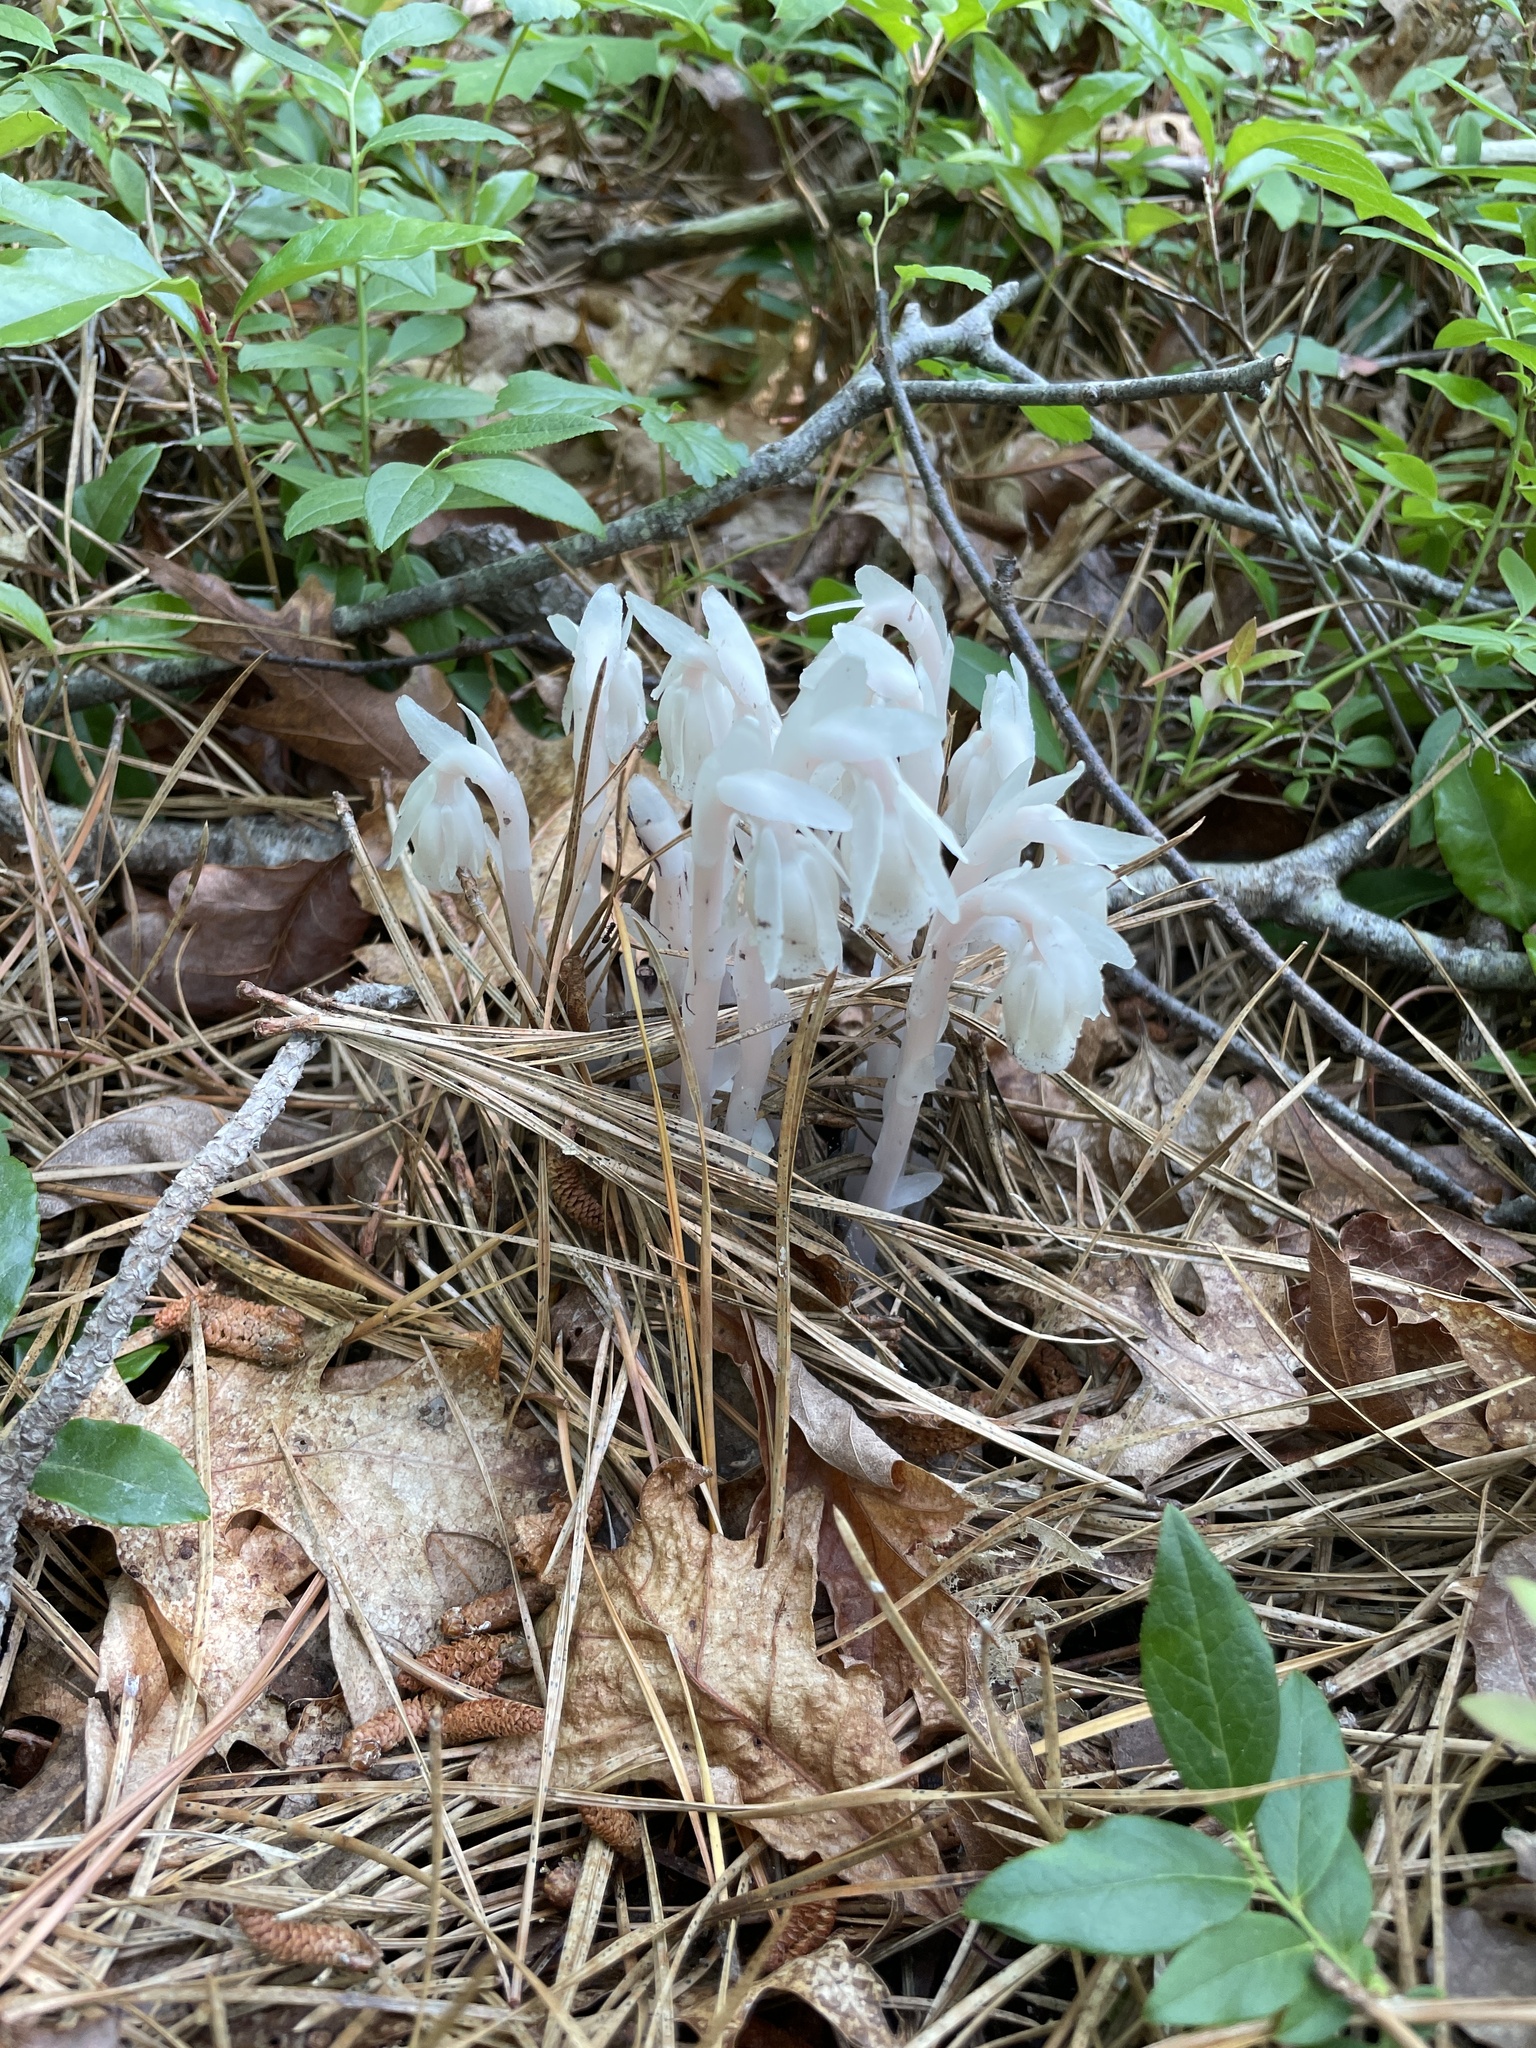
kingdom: Plantae
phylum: Tracheophyta
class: Magnoliopsida
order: Ericales
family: Ericaceae
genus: Monotropa
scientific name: Monotropa uniflora
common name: Convulsion root
